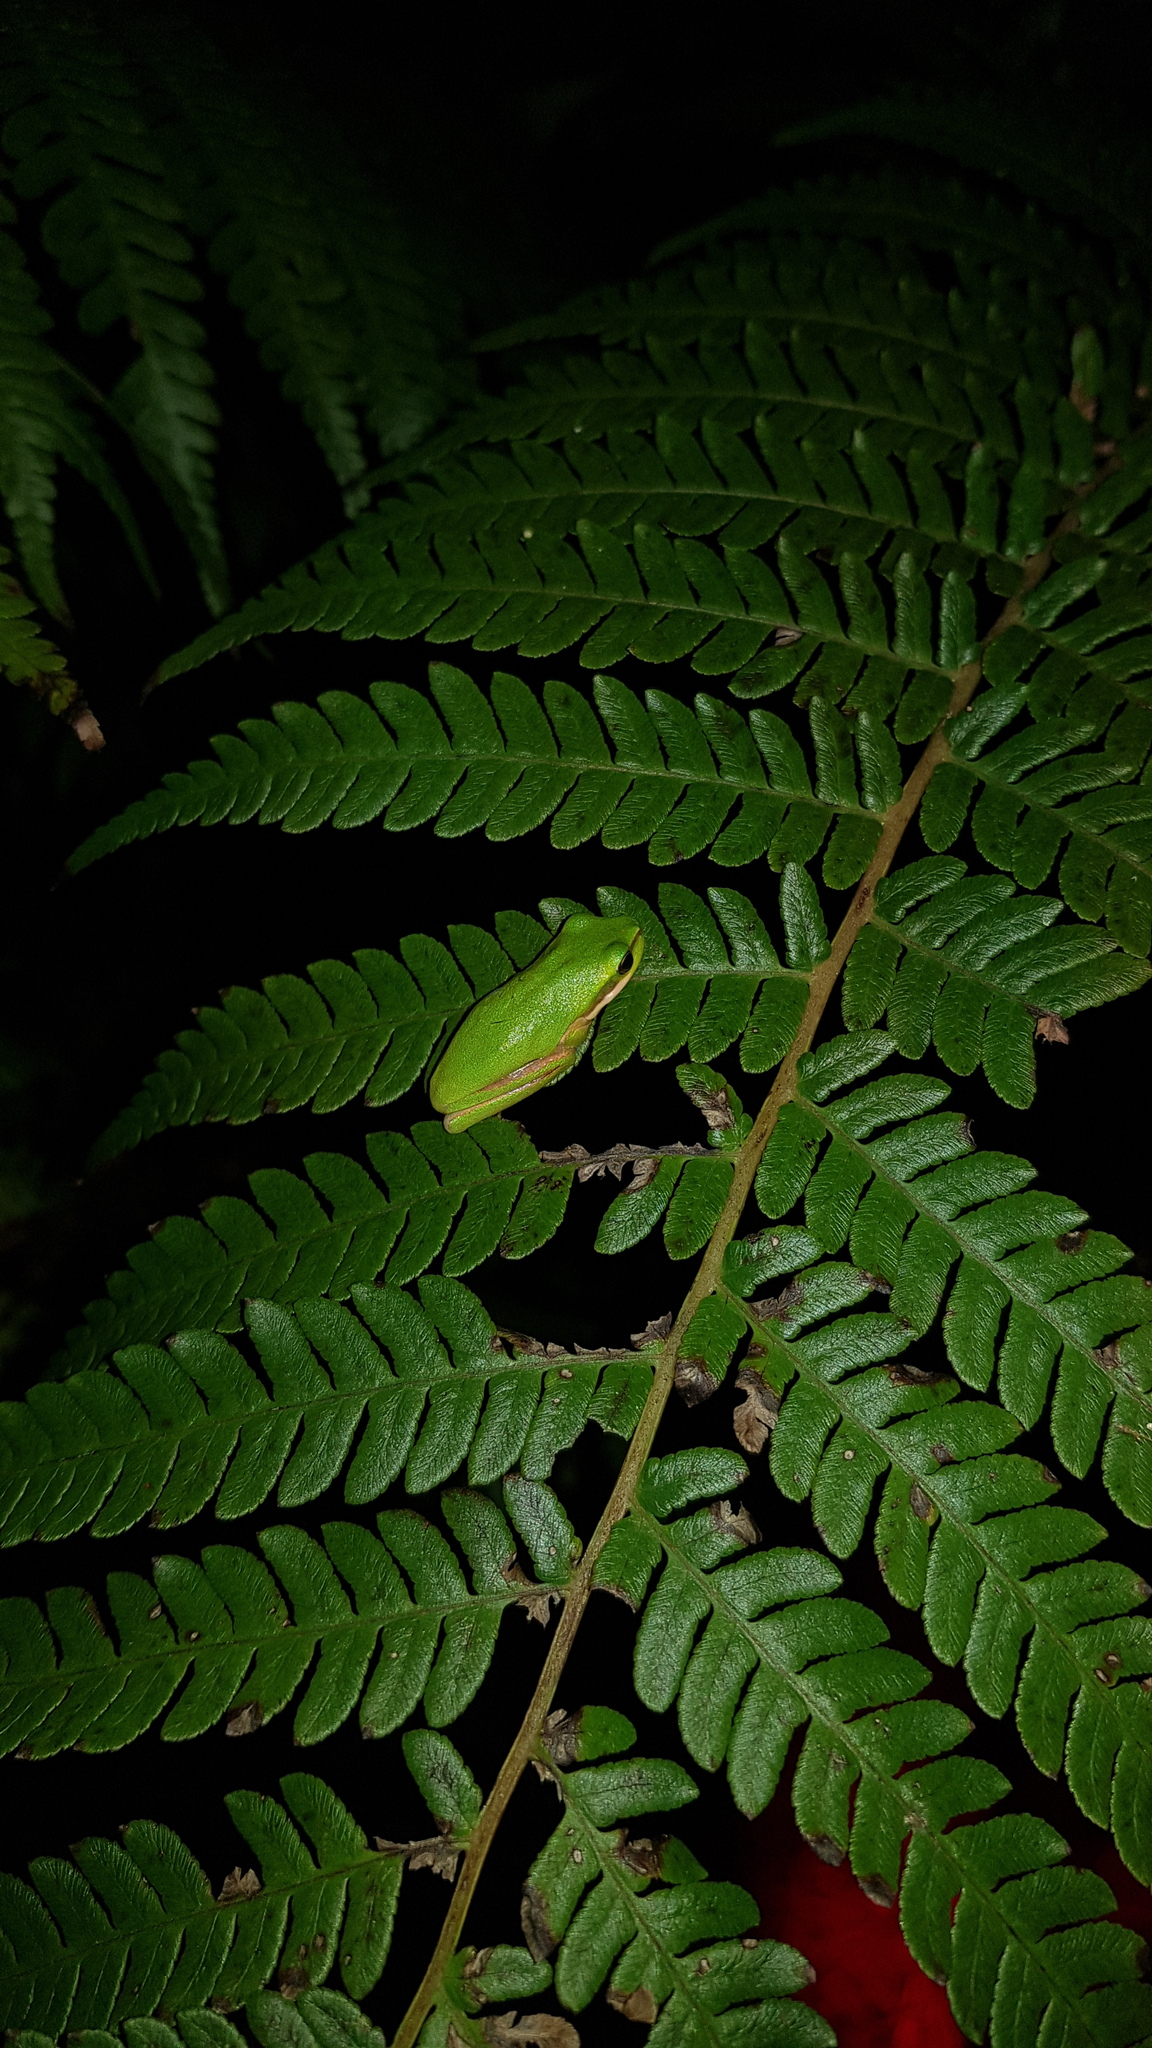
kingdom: Animalia
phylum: Chordata
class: Amphibia
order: Anura
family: Pelodryadidae
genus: Litoria
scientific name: Litoria fallax
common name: Eastern dwarf treefrog
